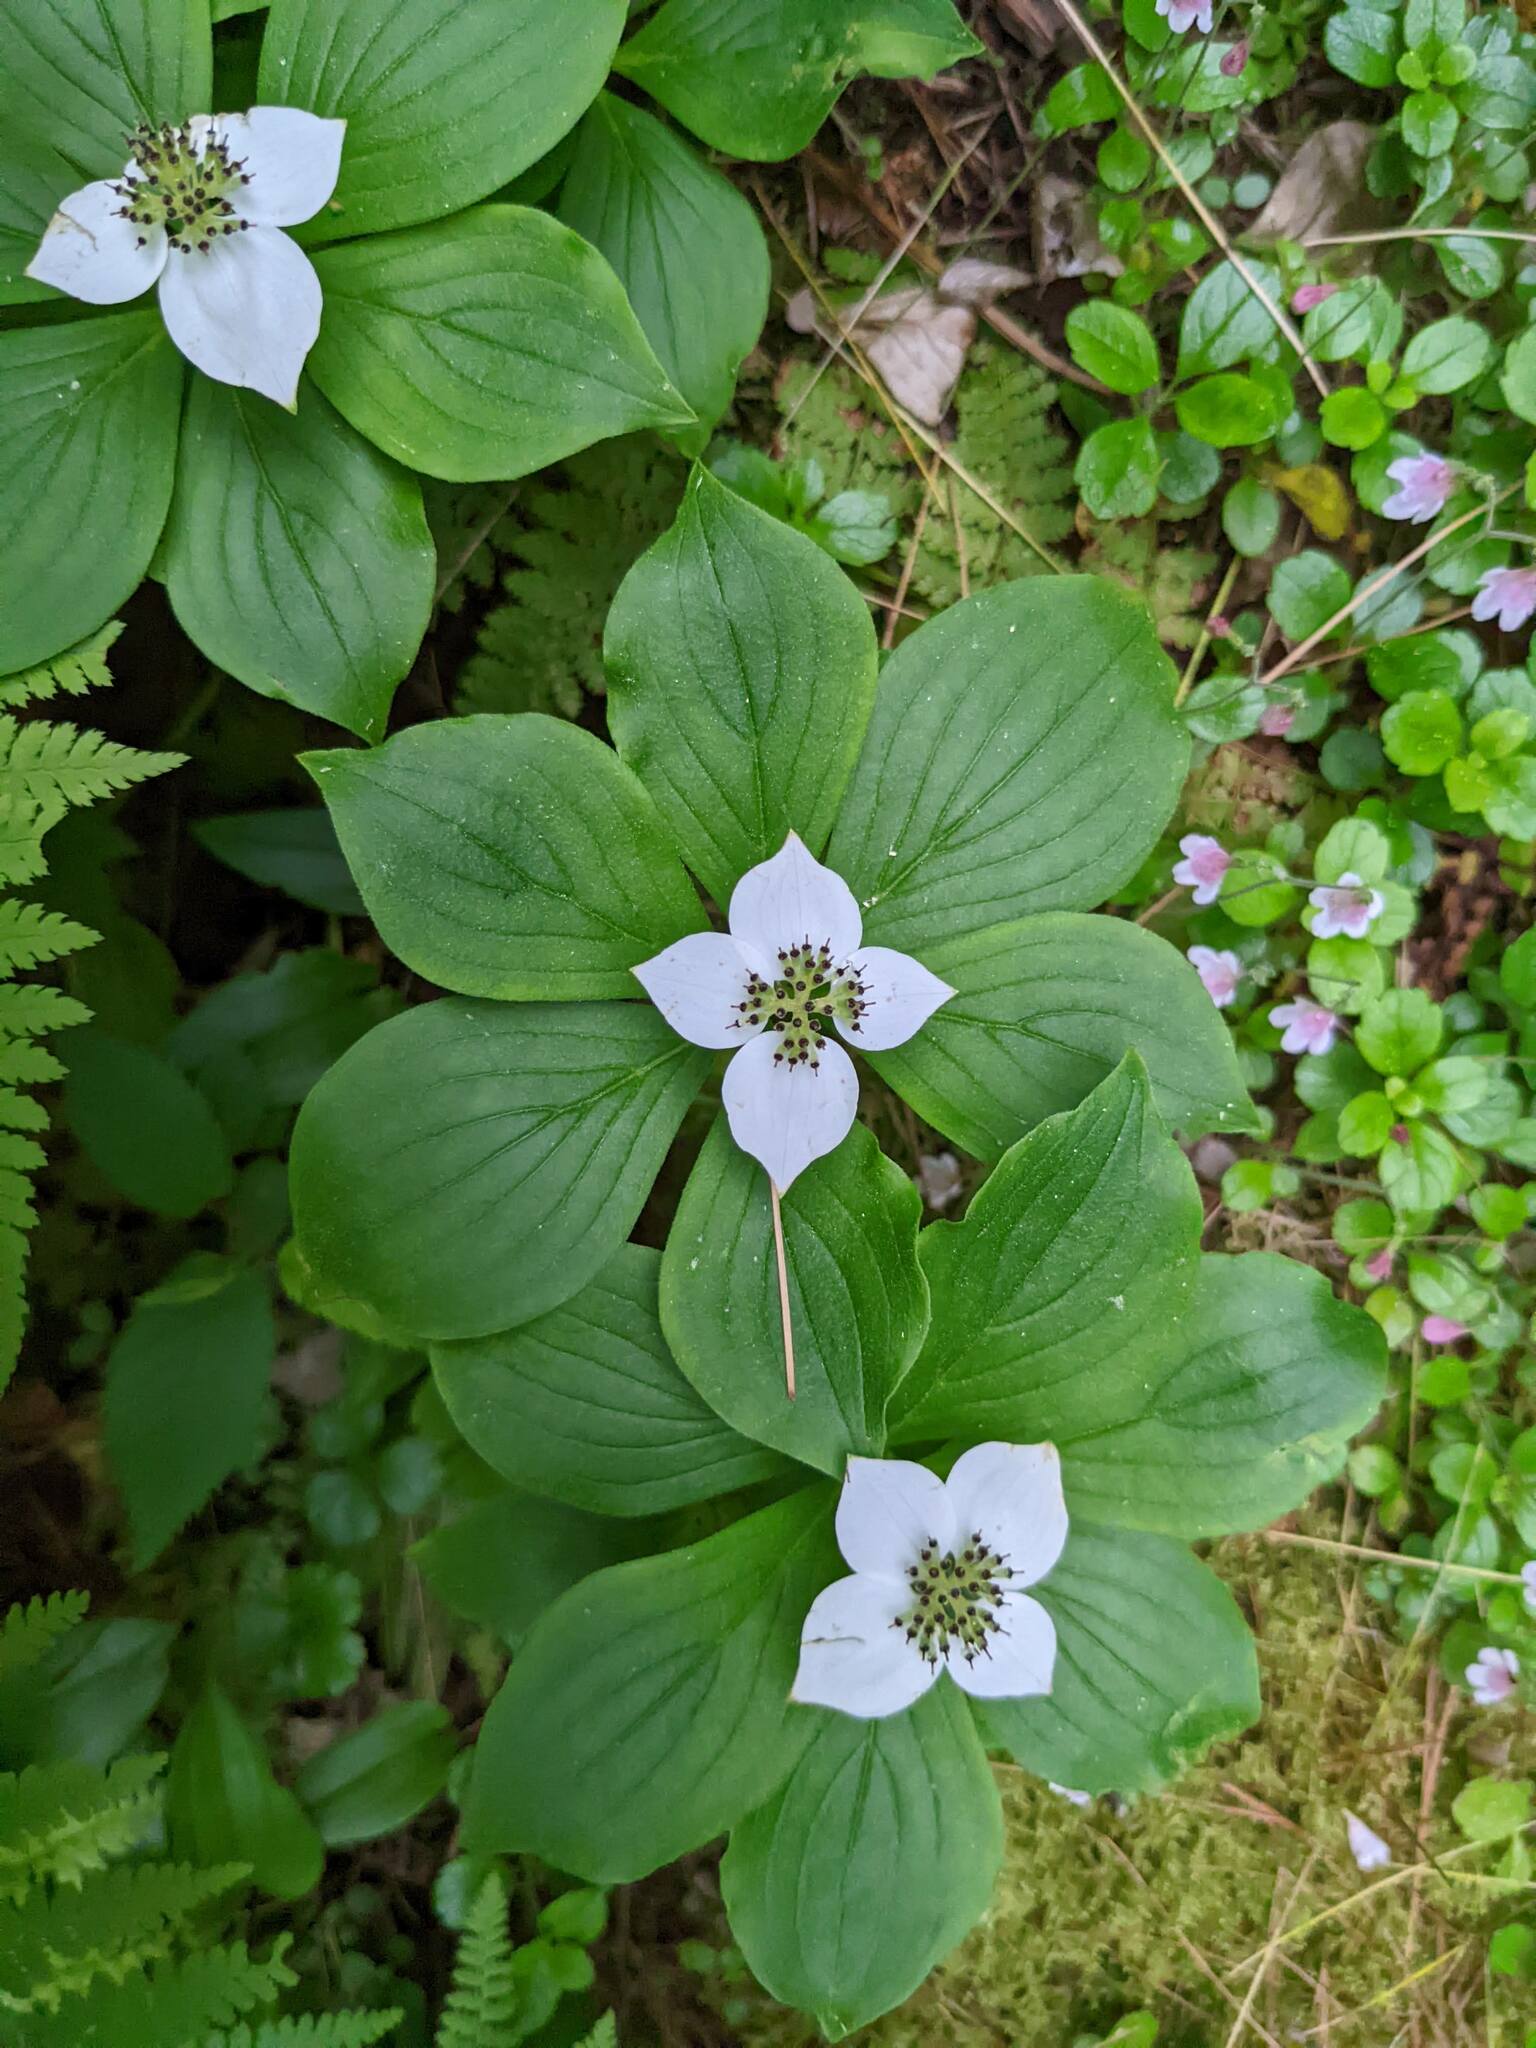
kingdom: Plantae
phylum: Tracheophyta
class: Magnoliopsida
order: Cornales
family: Cornaceae
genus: Cornus
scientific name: Cornus canadensis
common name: Creeping dogwood
